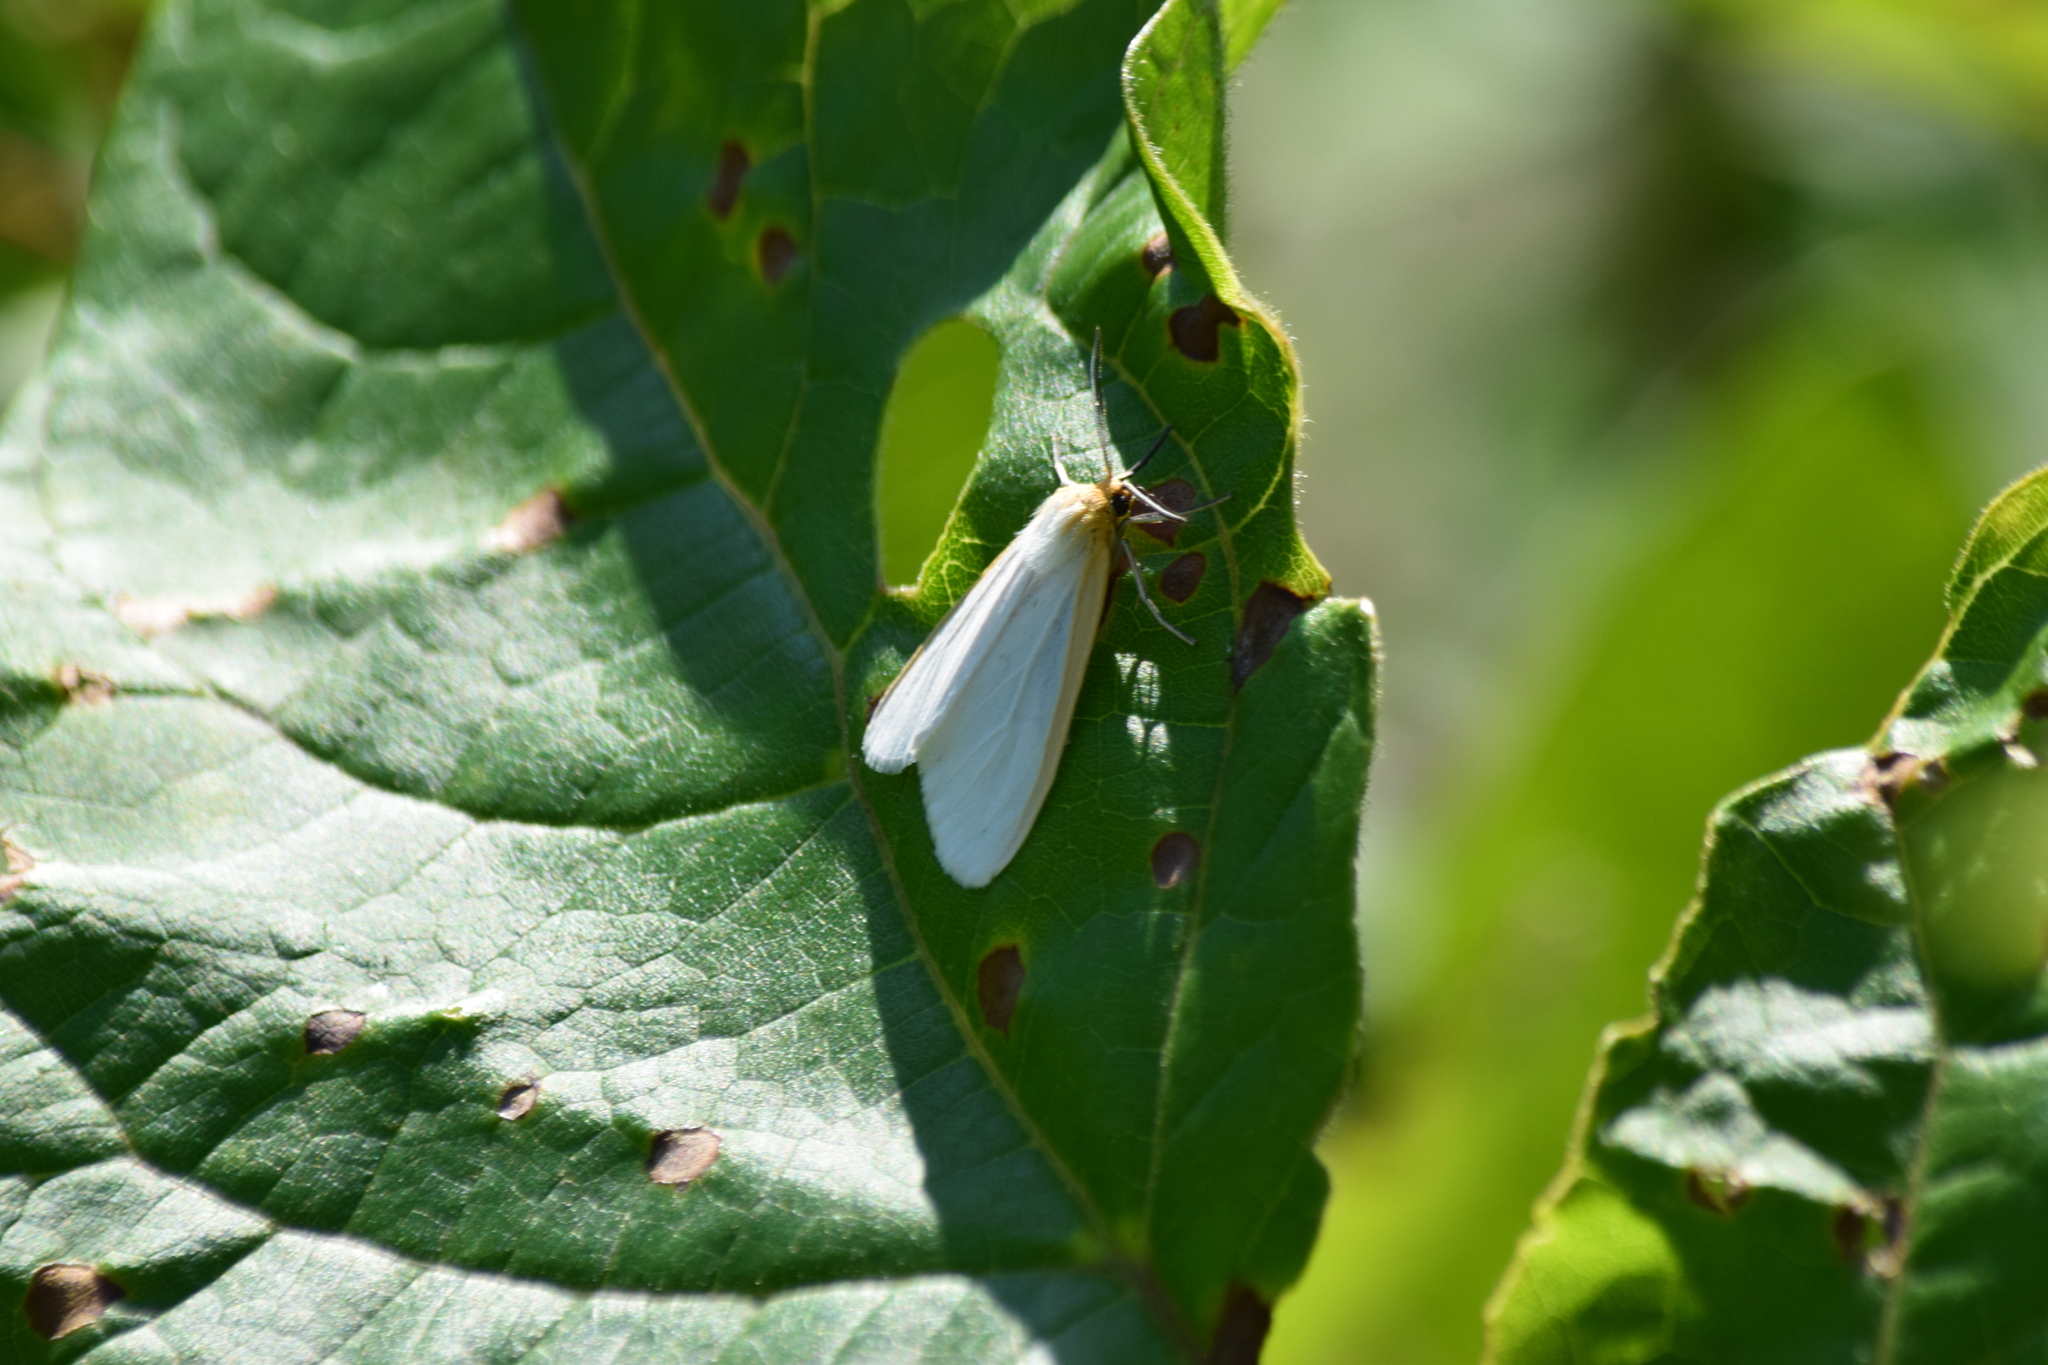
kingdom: Animalia
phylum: Arthropoda
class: Insecta
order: Lepidoptera
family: Erebidae
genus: Cycnia
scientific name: Cycnia tenera
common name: Delicate cycnia moth
